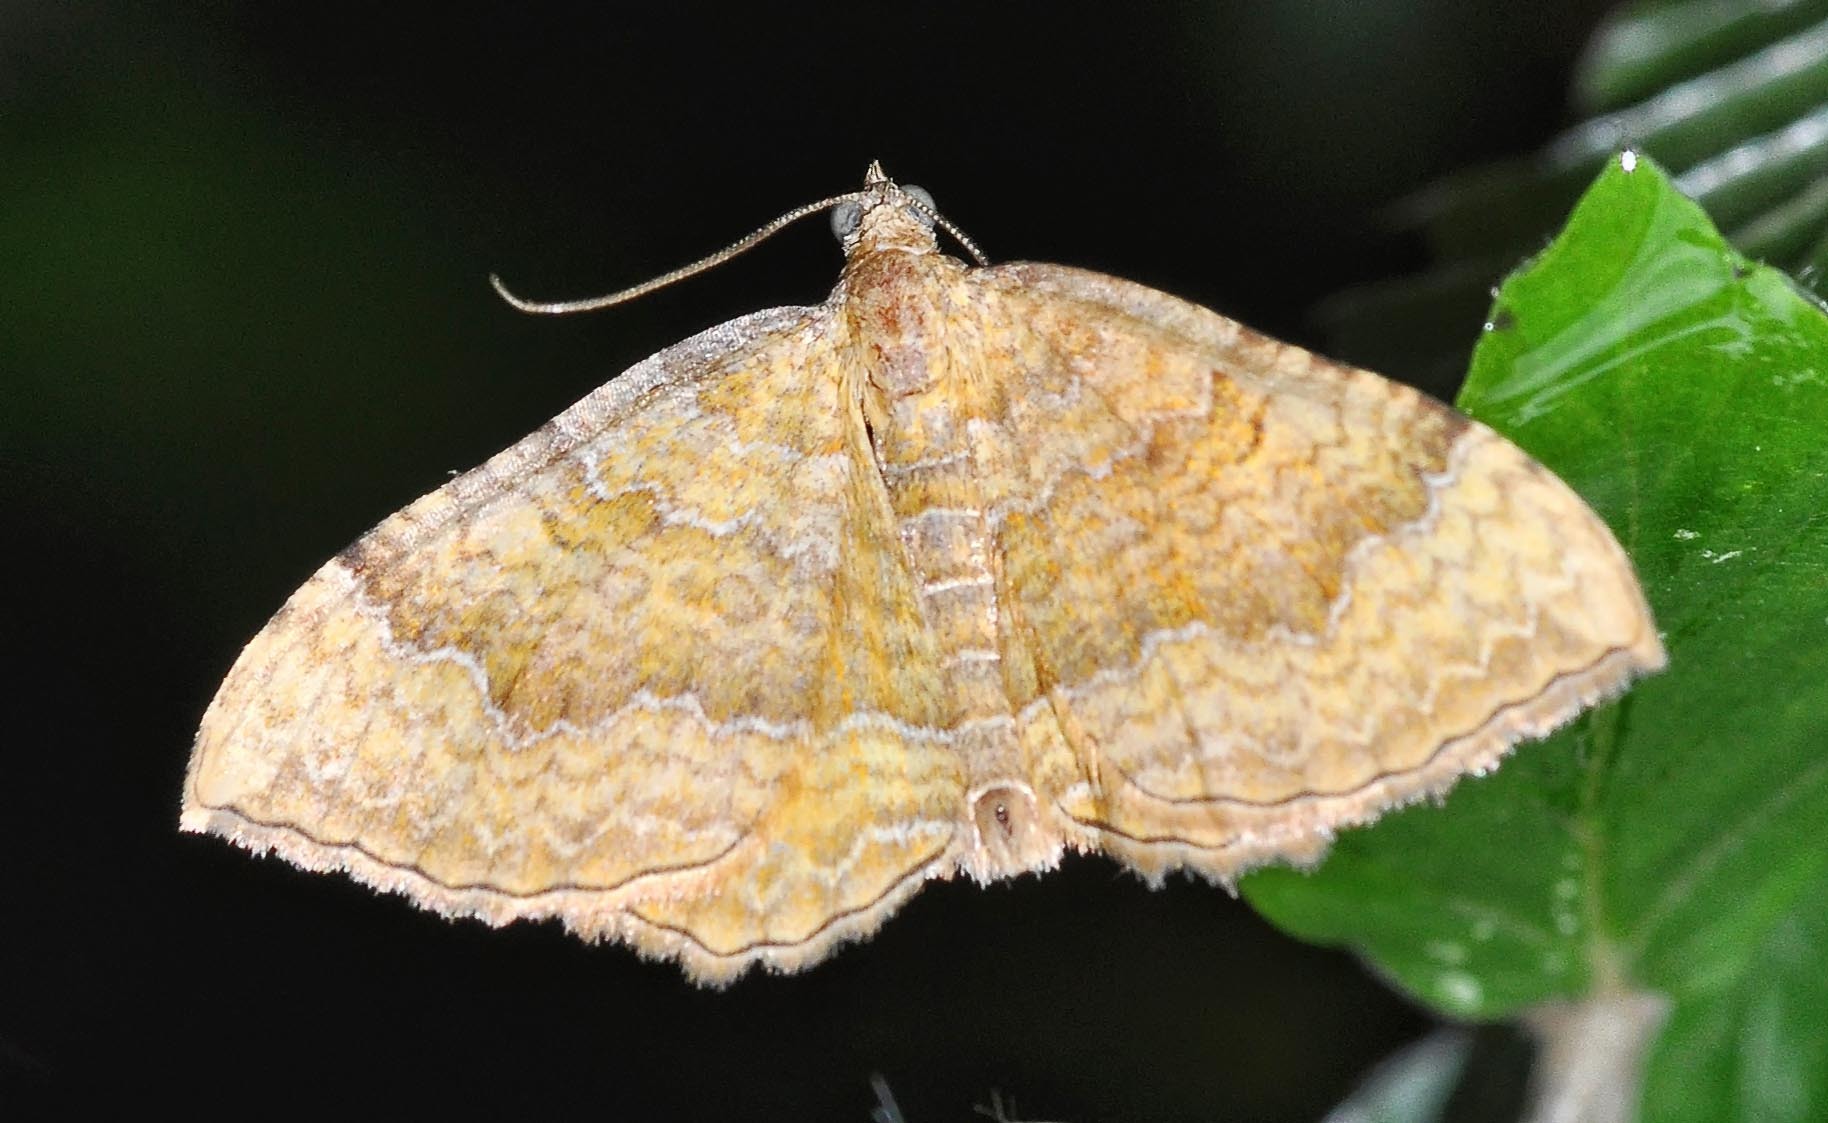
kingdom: Animalia
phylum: Arthropoda
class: Insecta
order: Lepidoptera
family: Geometridae
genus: Camptogramma
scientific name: Camptogramma bilineata
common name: Yellow shell
